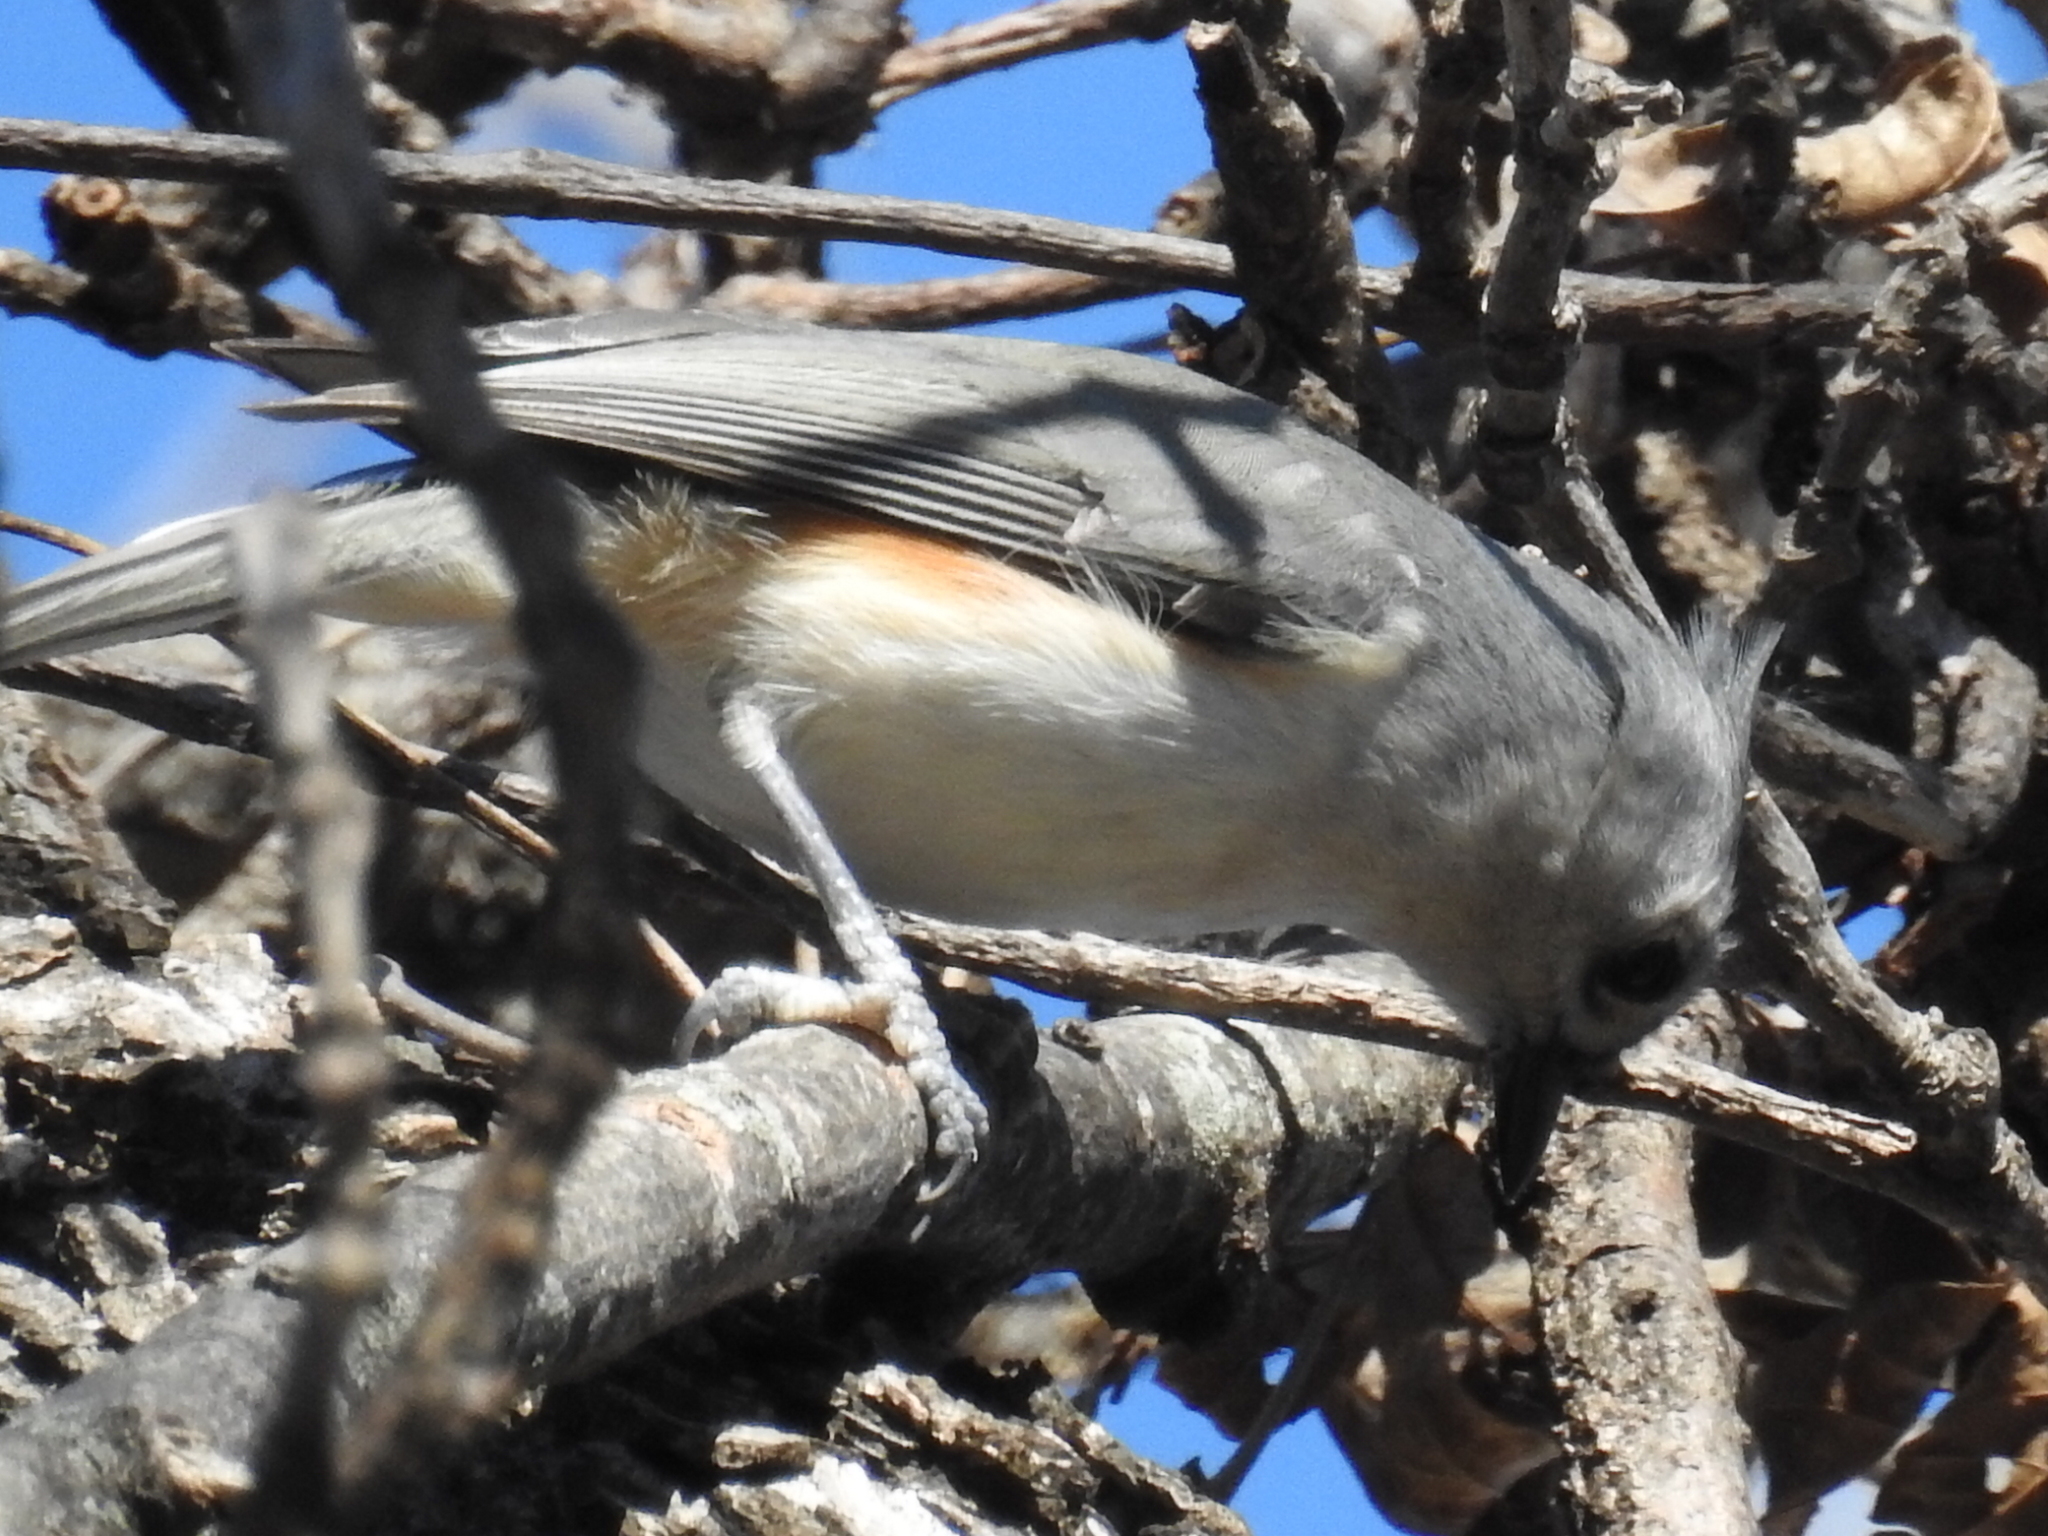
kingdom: Animalia
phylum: Chordata
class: Aves
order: Passeriformes
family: Paridae
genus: Baeolophus
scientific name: Baeolophus bicolor
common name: Tufted titmouse
